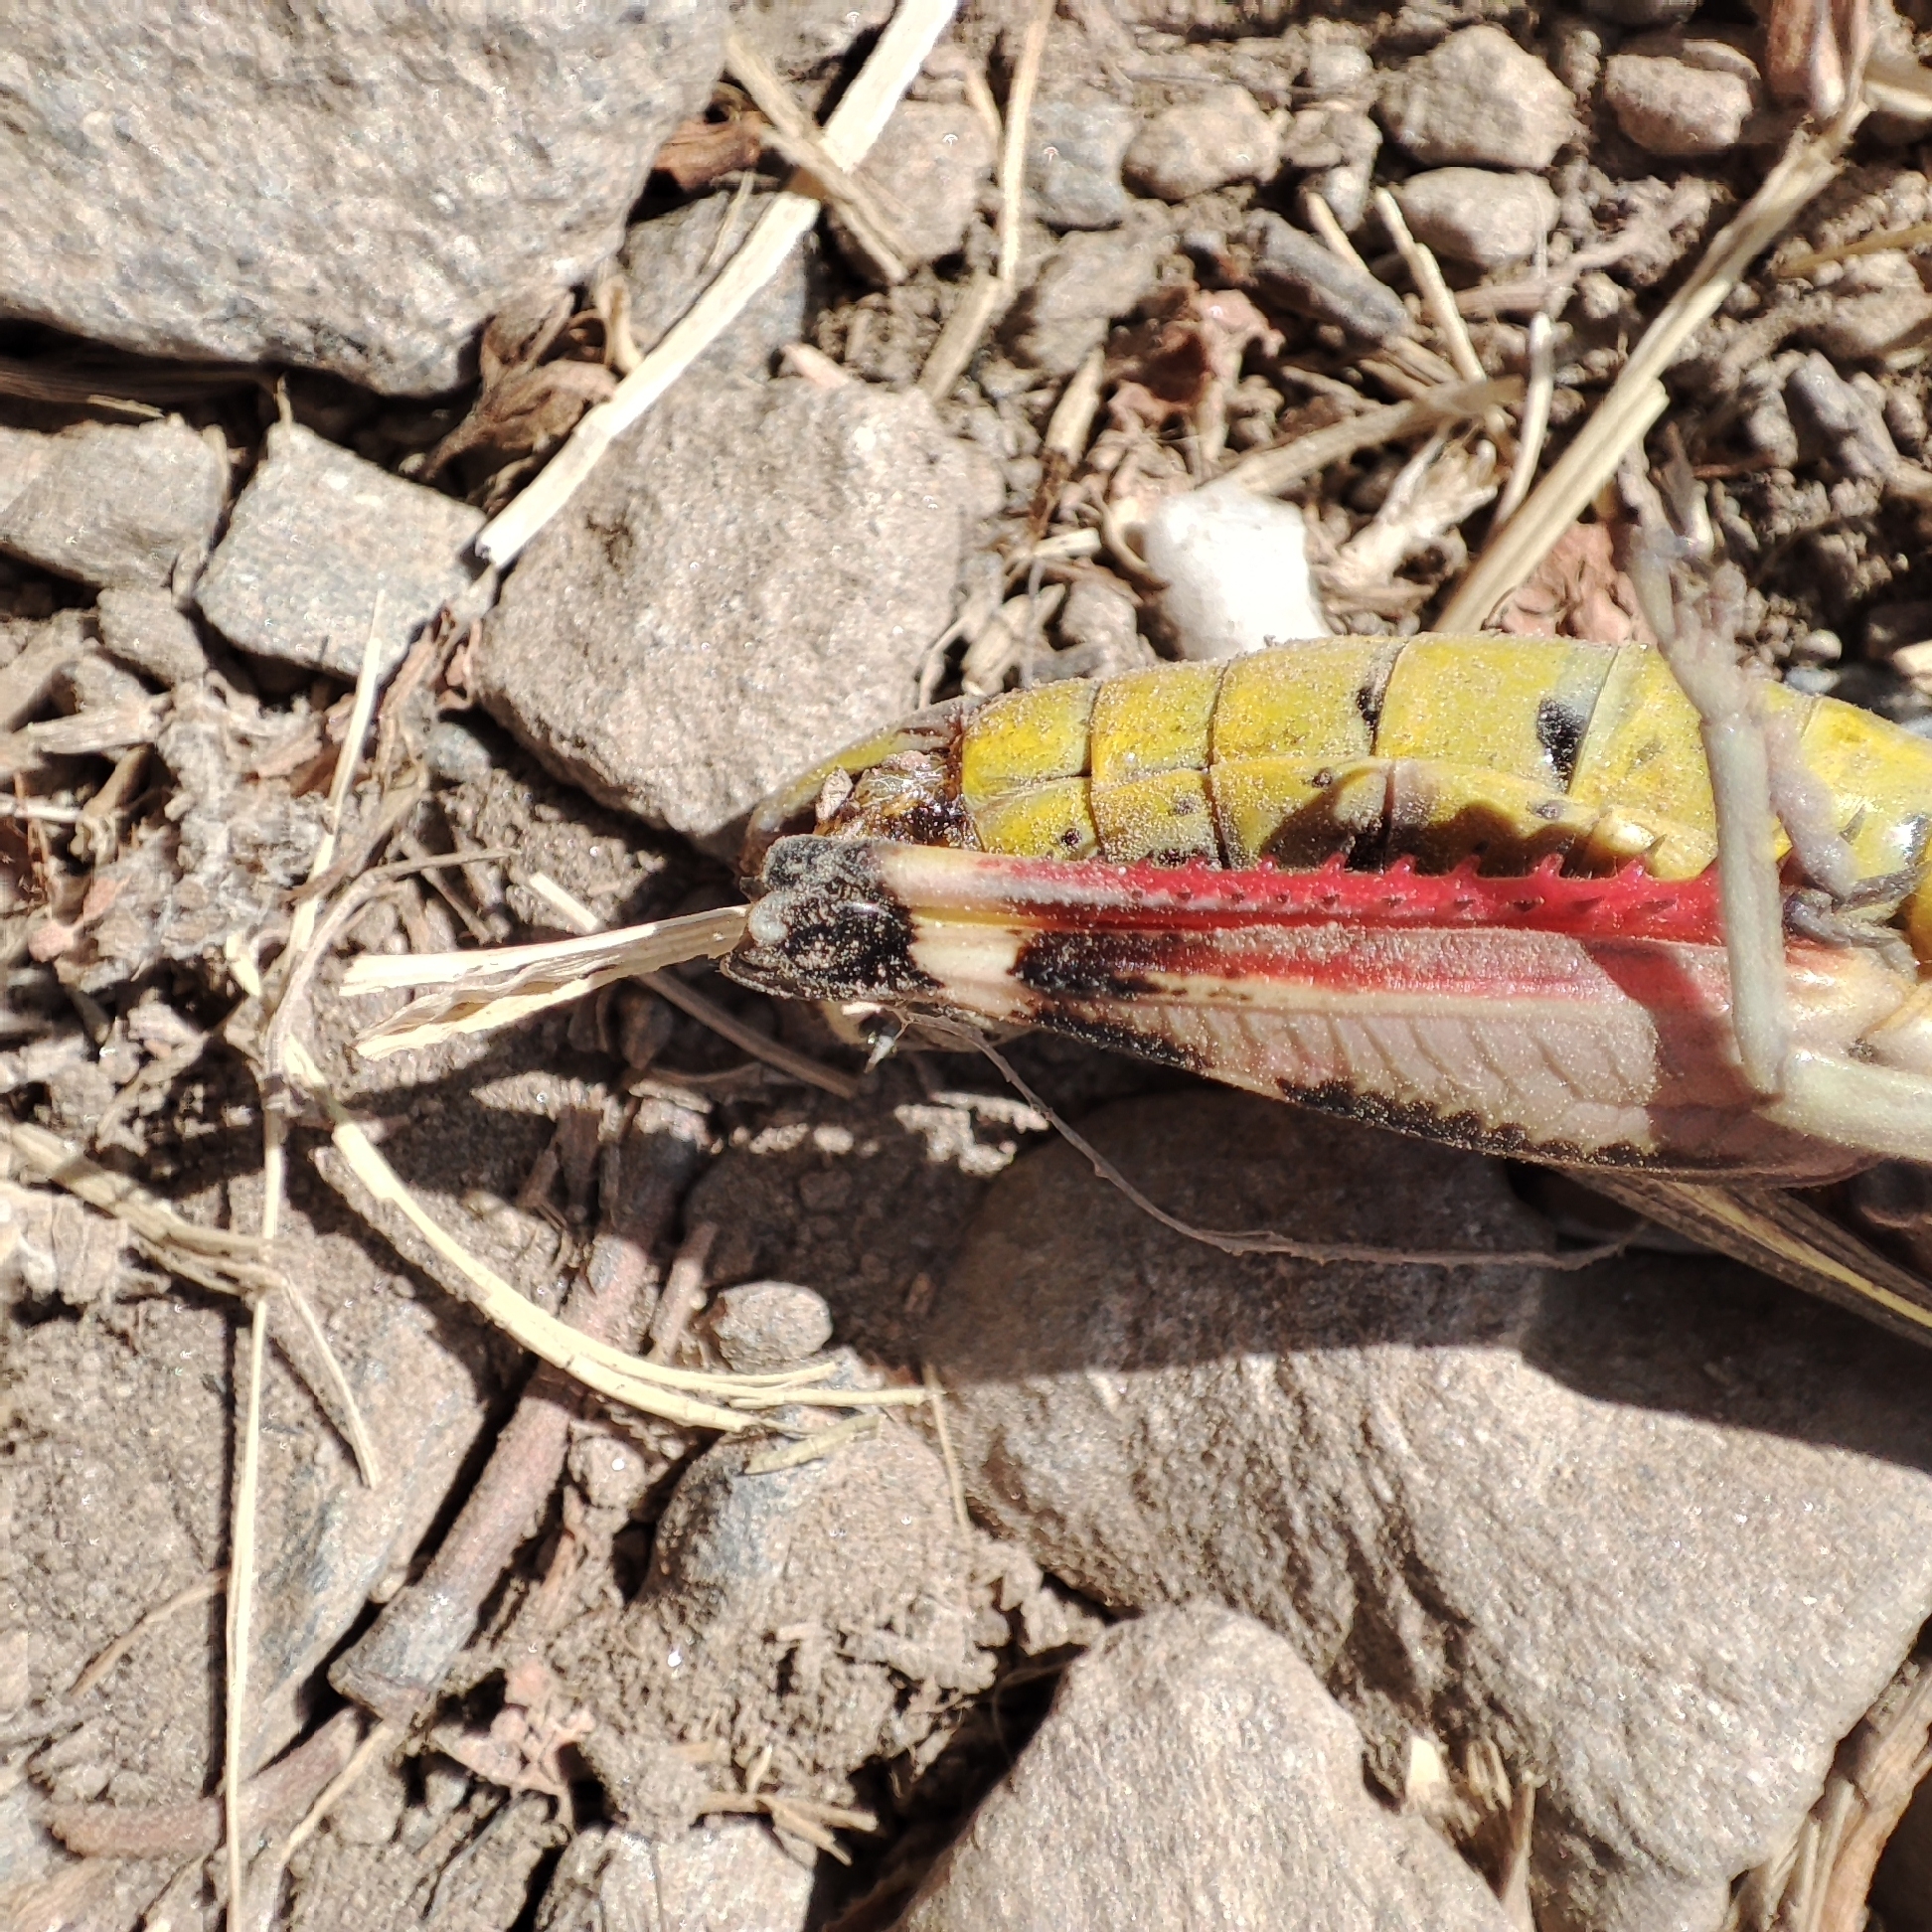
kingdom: Animalia
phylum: Arthropoda
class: Insecta
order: Orthoptera
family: Acrididae
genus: Arcyptera
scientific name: Arcyptera fusca
